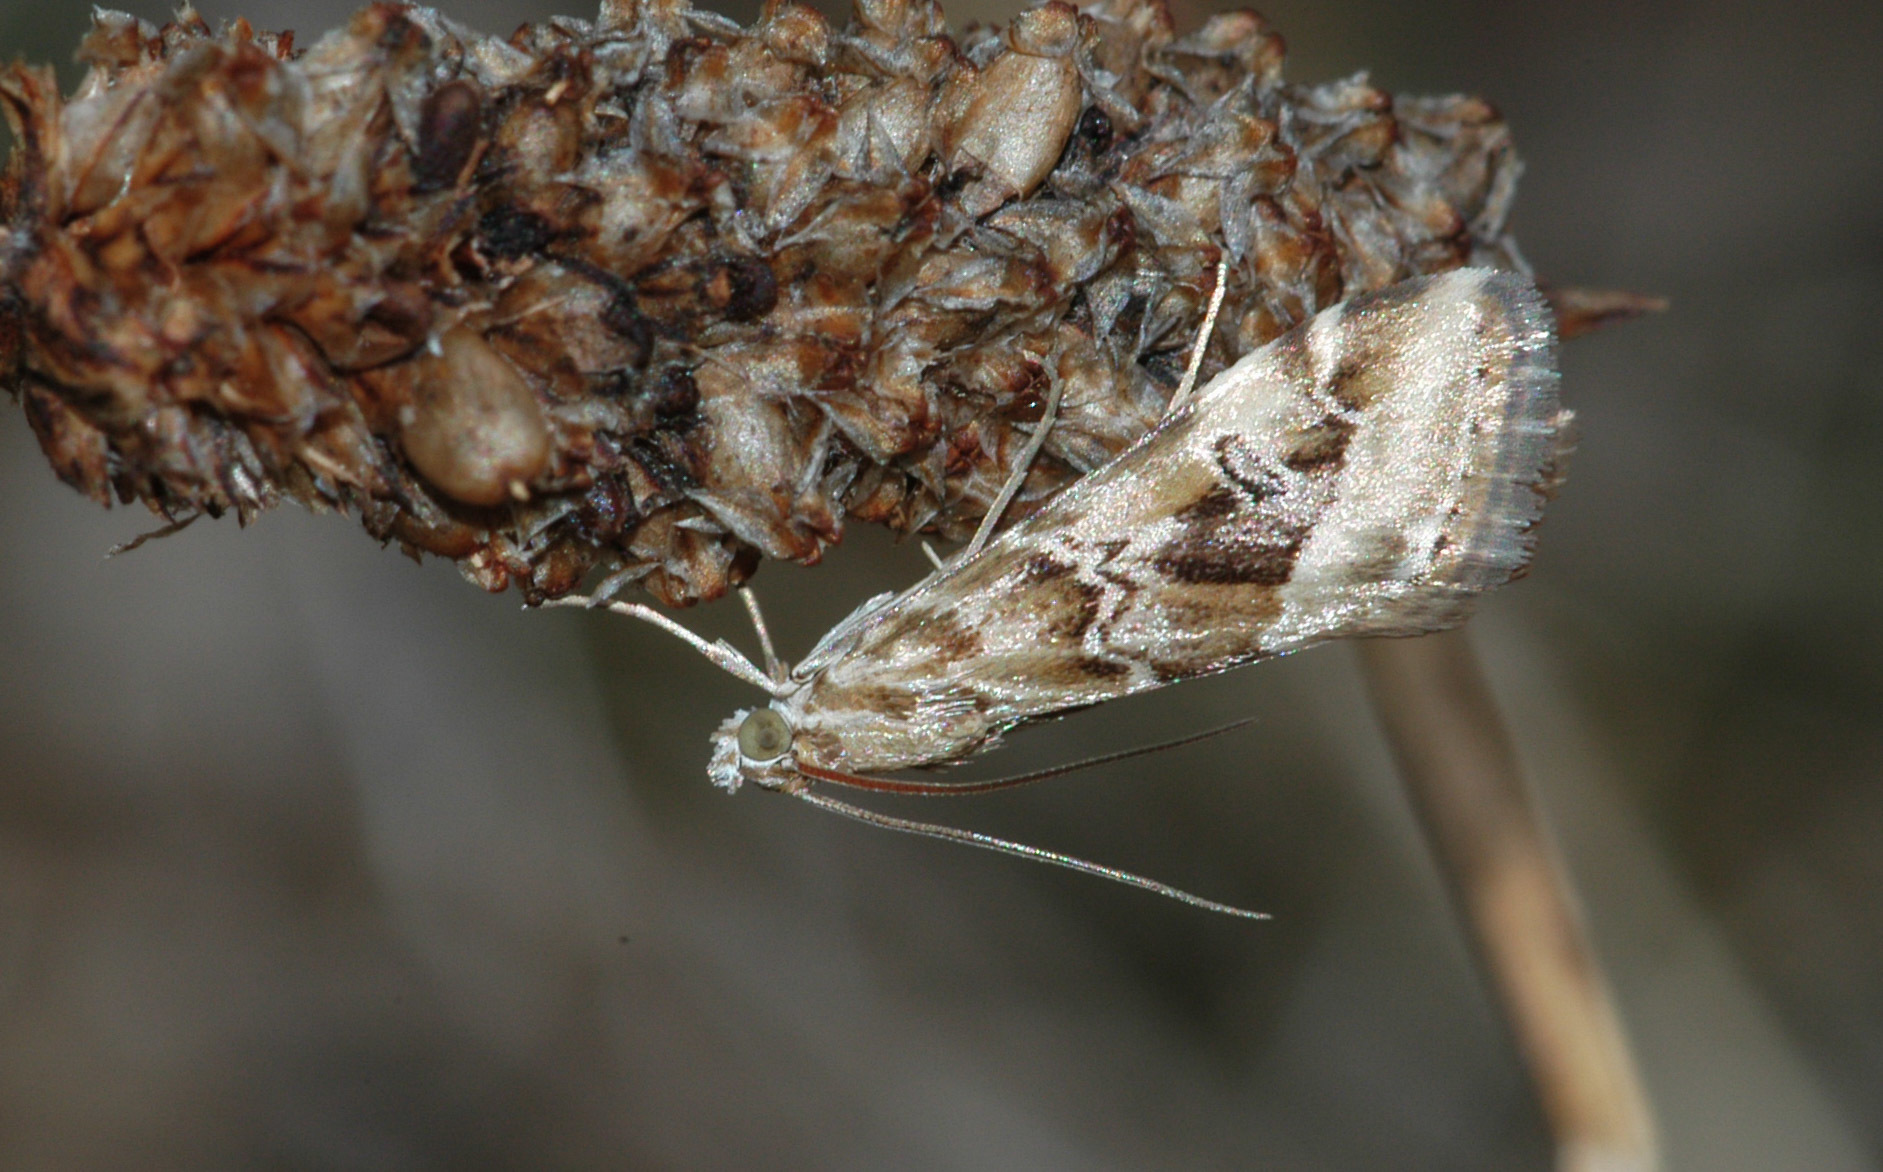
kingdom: Animalia
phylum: Arthropoda
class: Insecta
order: Lepidoptera
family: Crambidae
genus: Hellula
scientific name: Hellula hydralis
